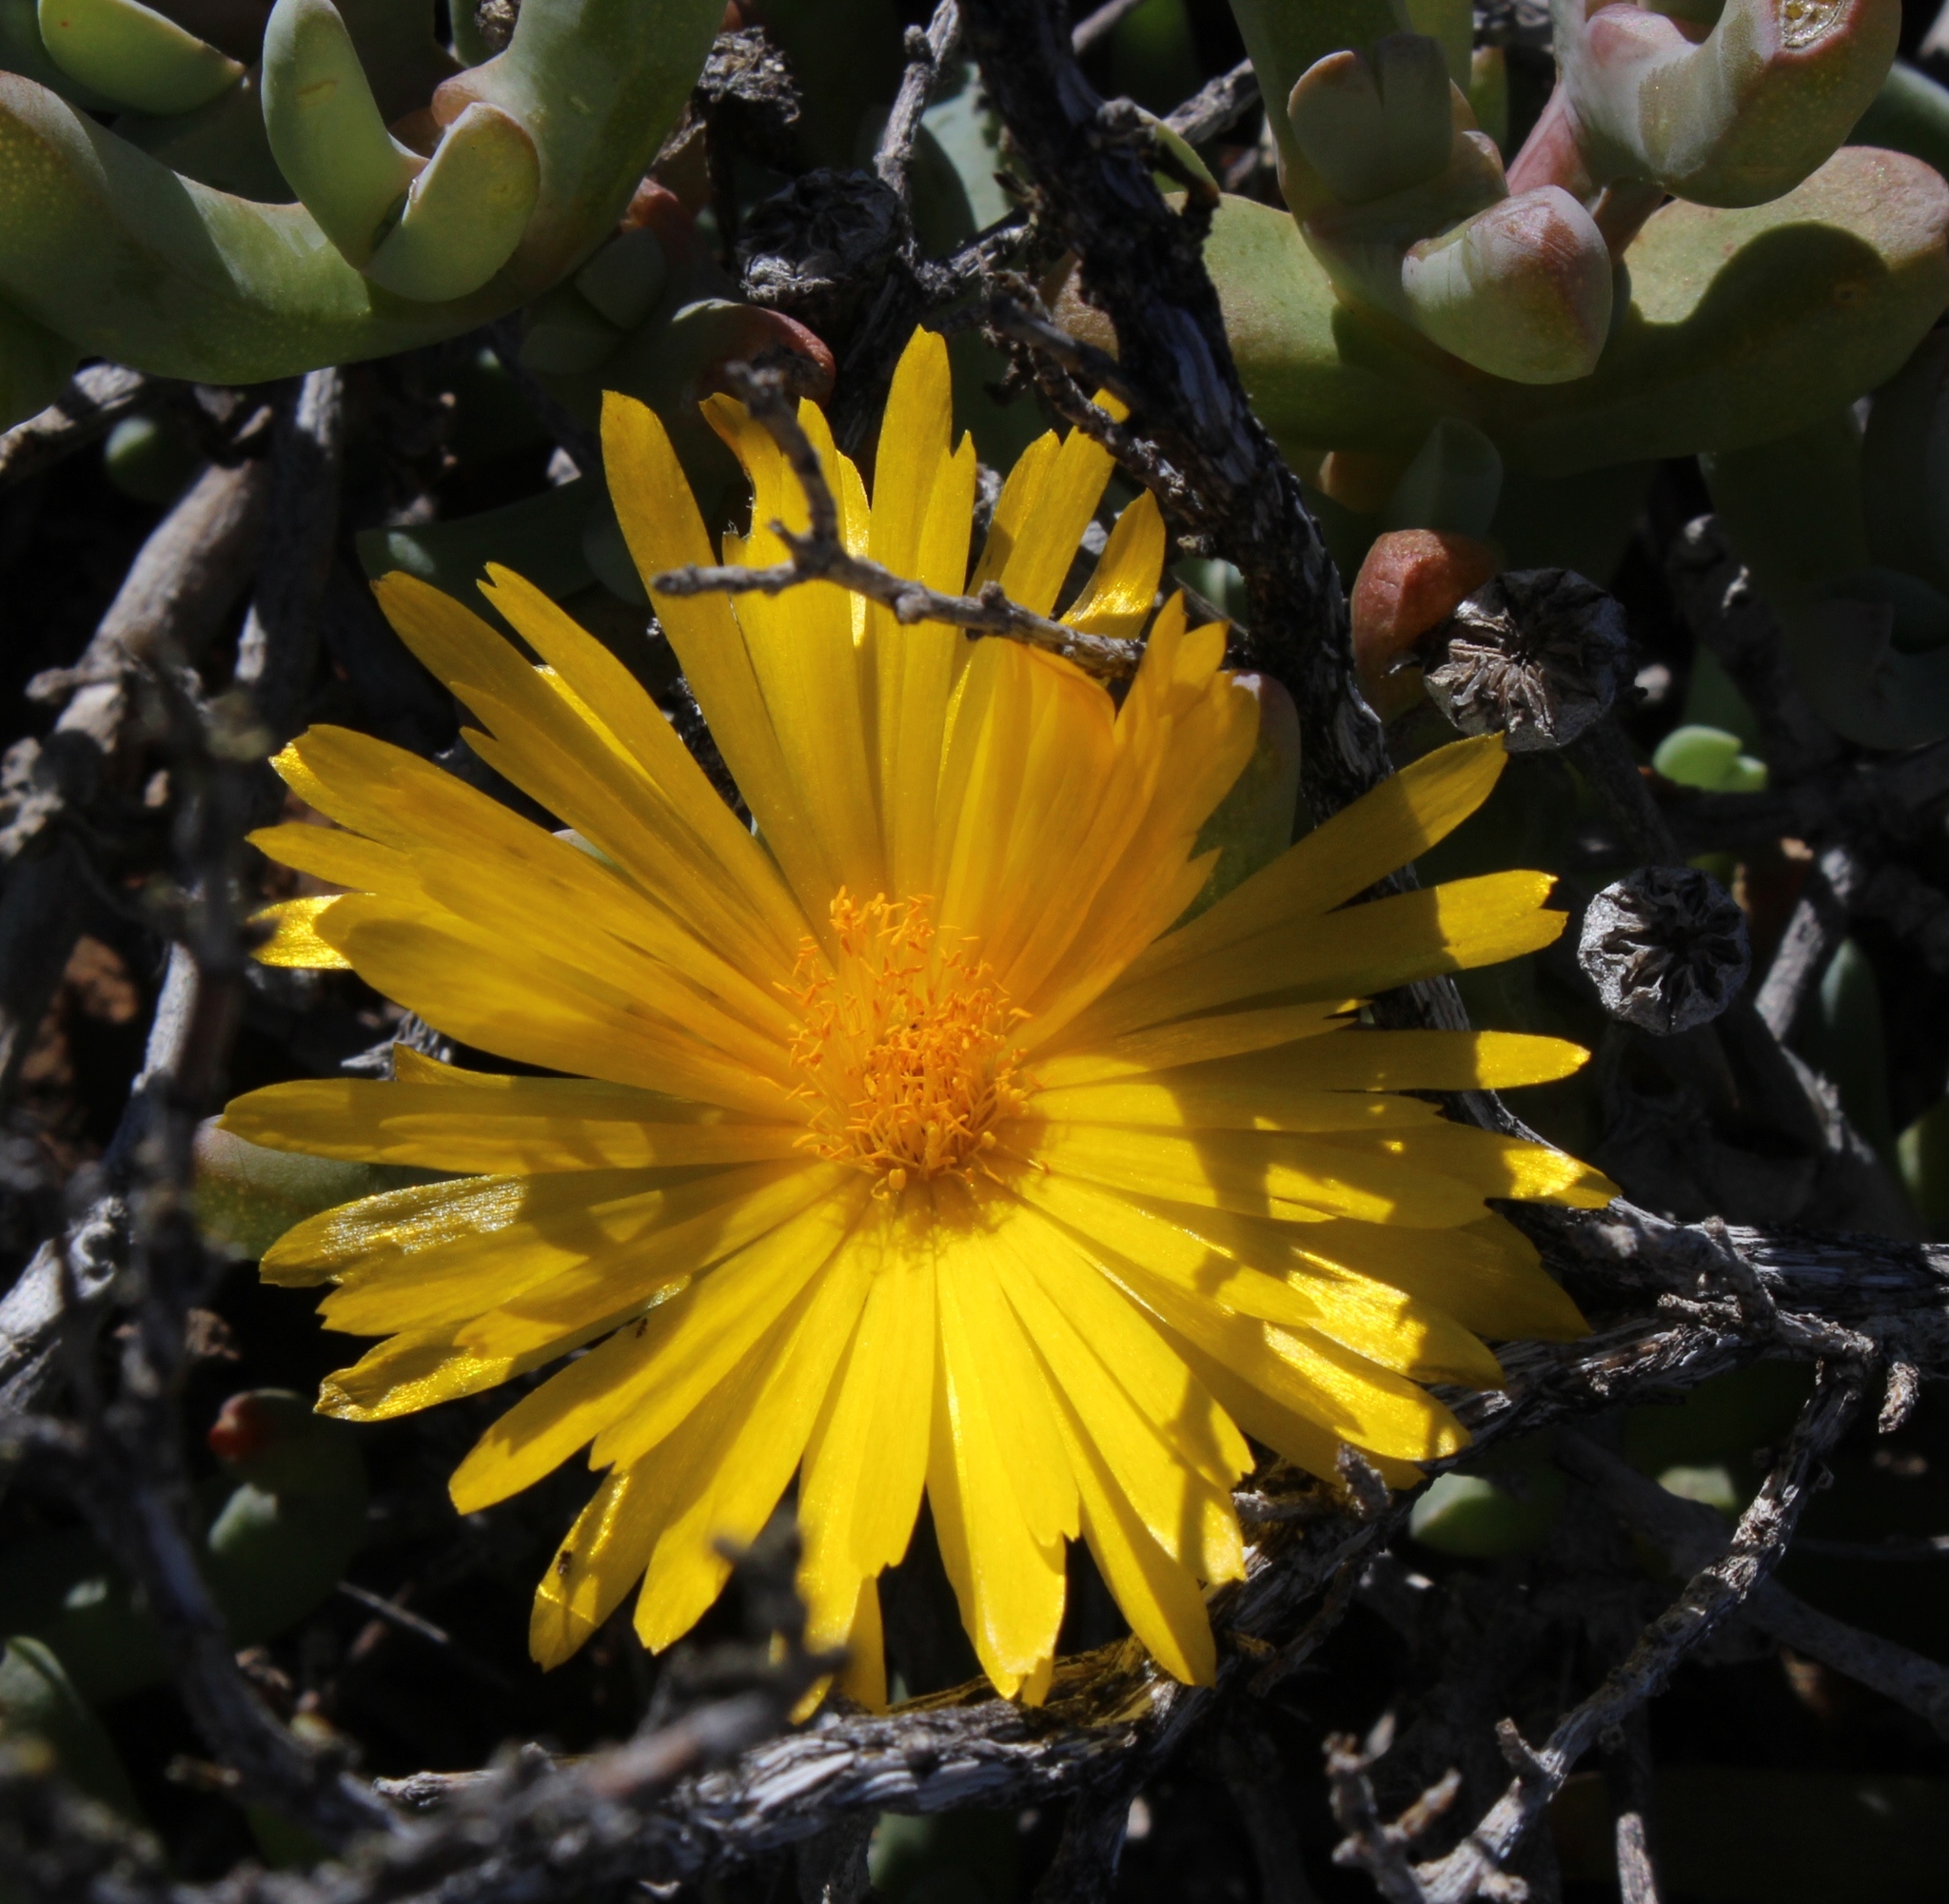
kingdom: Plantae
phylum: Tracheophyta
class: Magnoliopsida
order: Caryophyllales
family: Aizoaceae
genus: Malephora
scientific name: Malephora crassa
